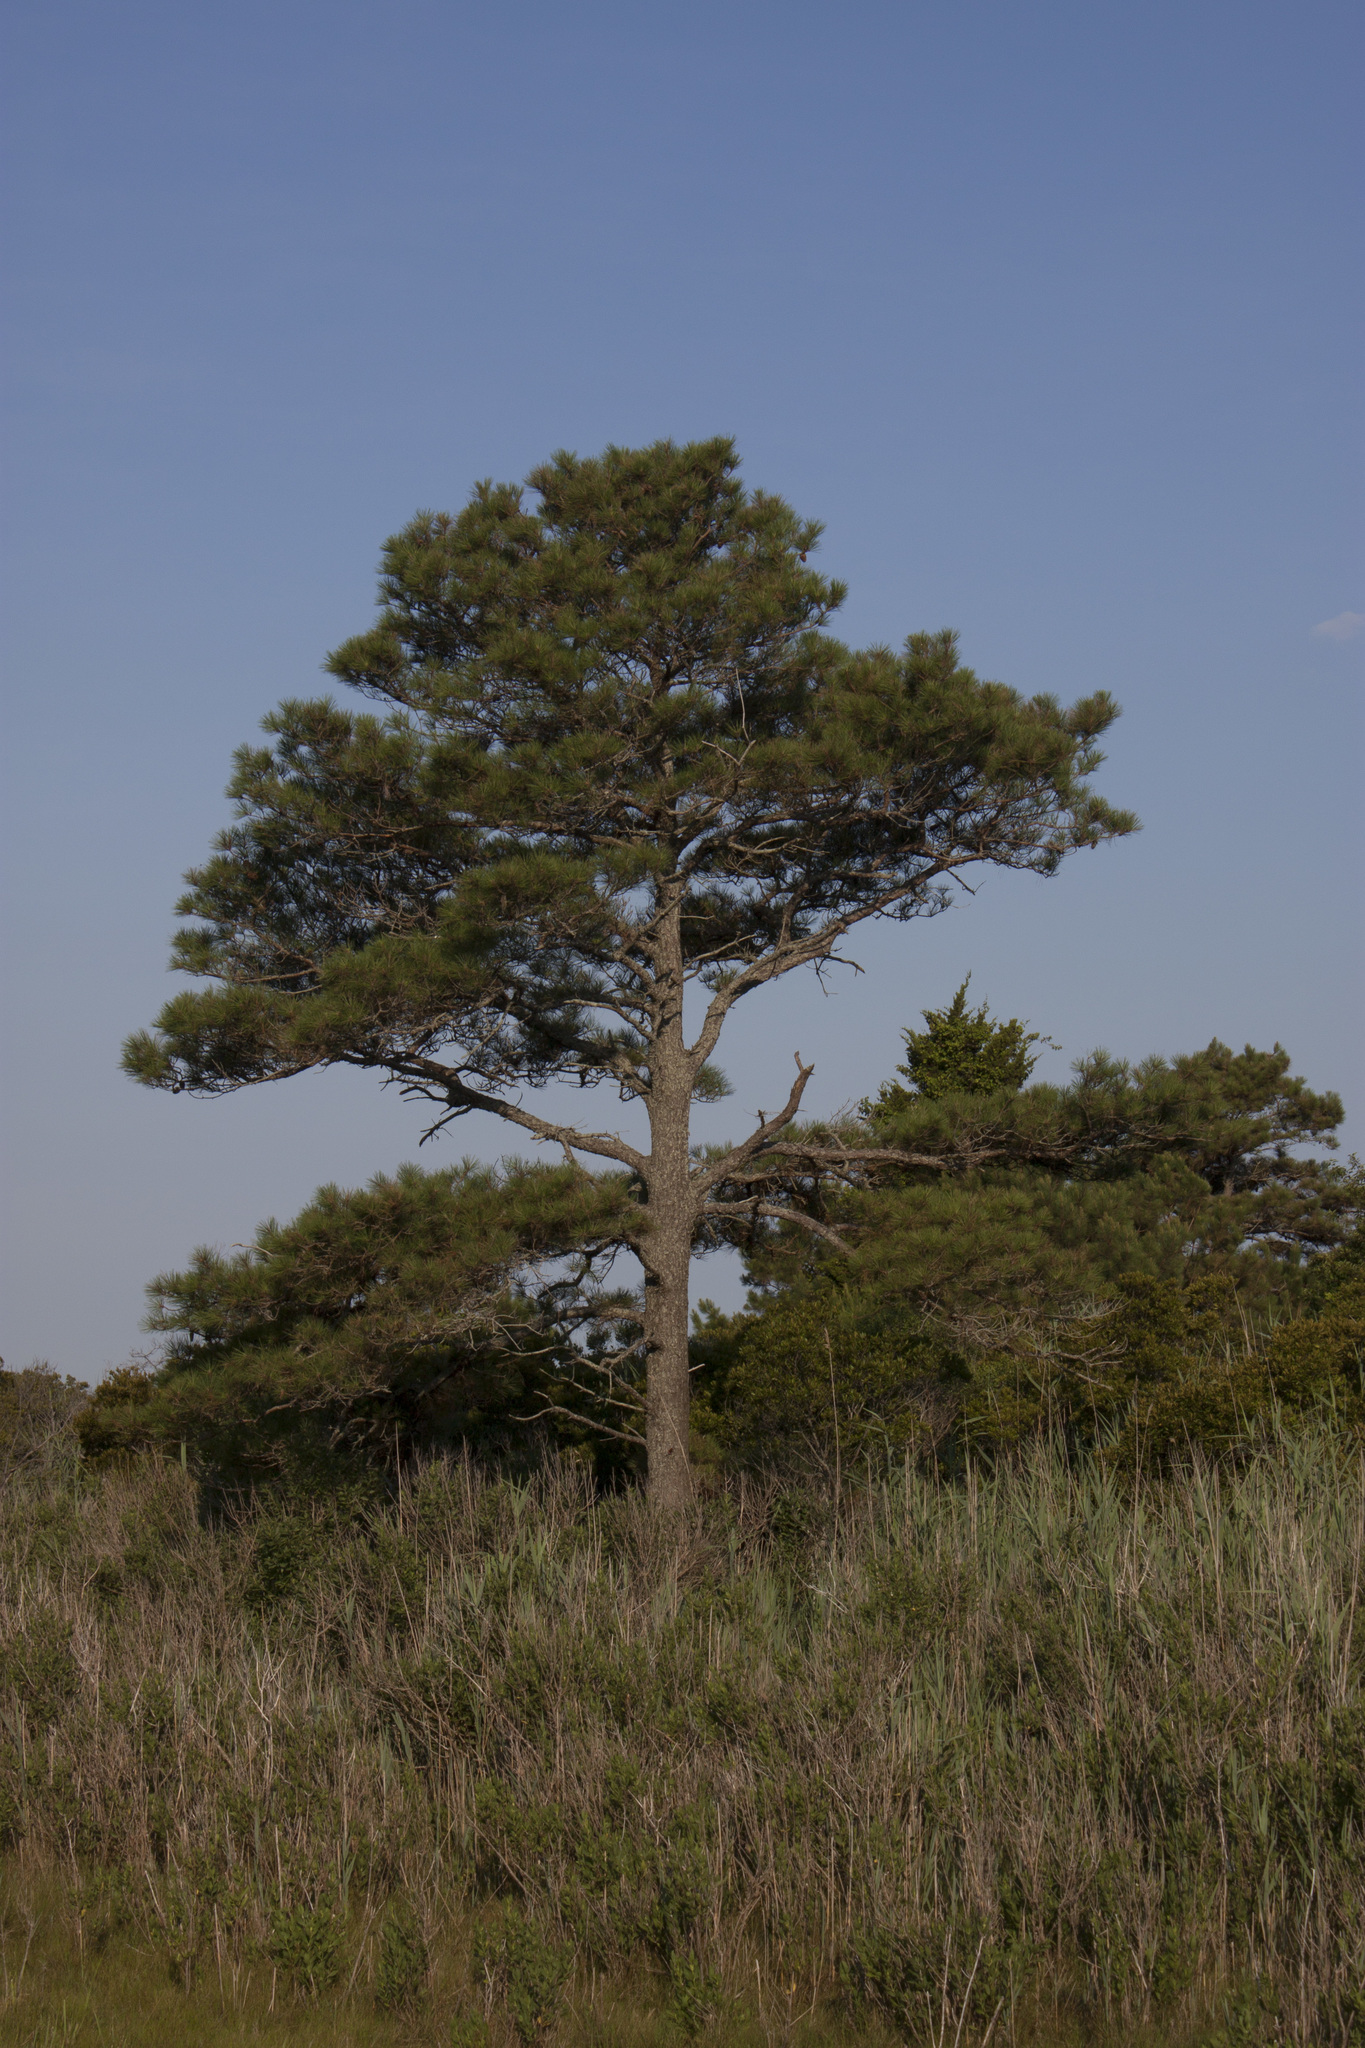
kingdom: Plantae
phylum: Tracheophyta
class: Pinopsida
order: Pinales
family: Pinaceae
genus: Pinus
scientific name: Pinus taeda
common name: Loblolly pine
